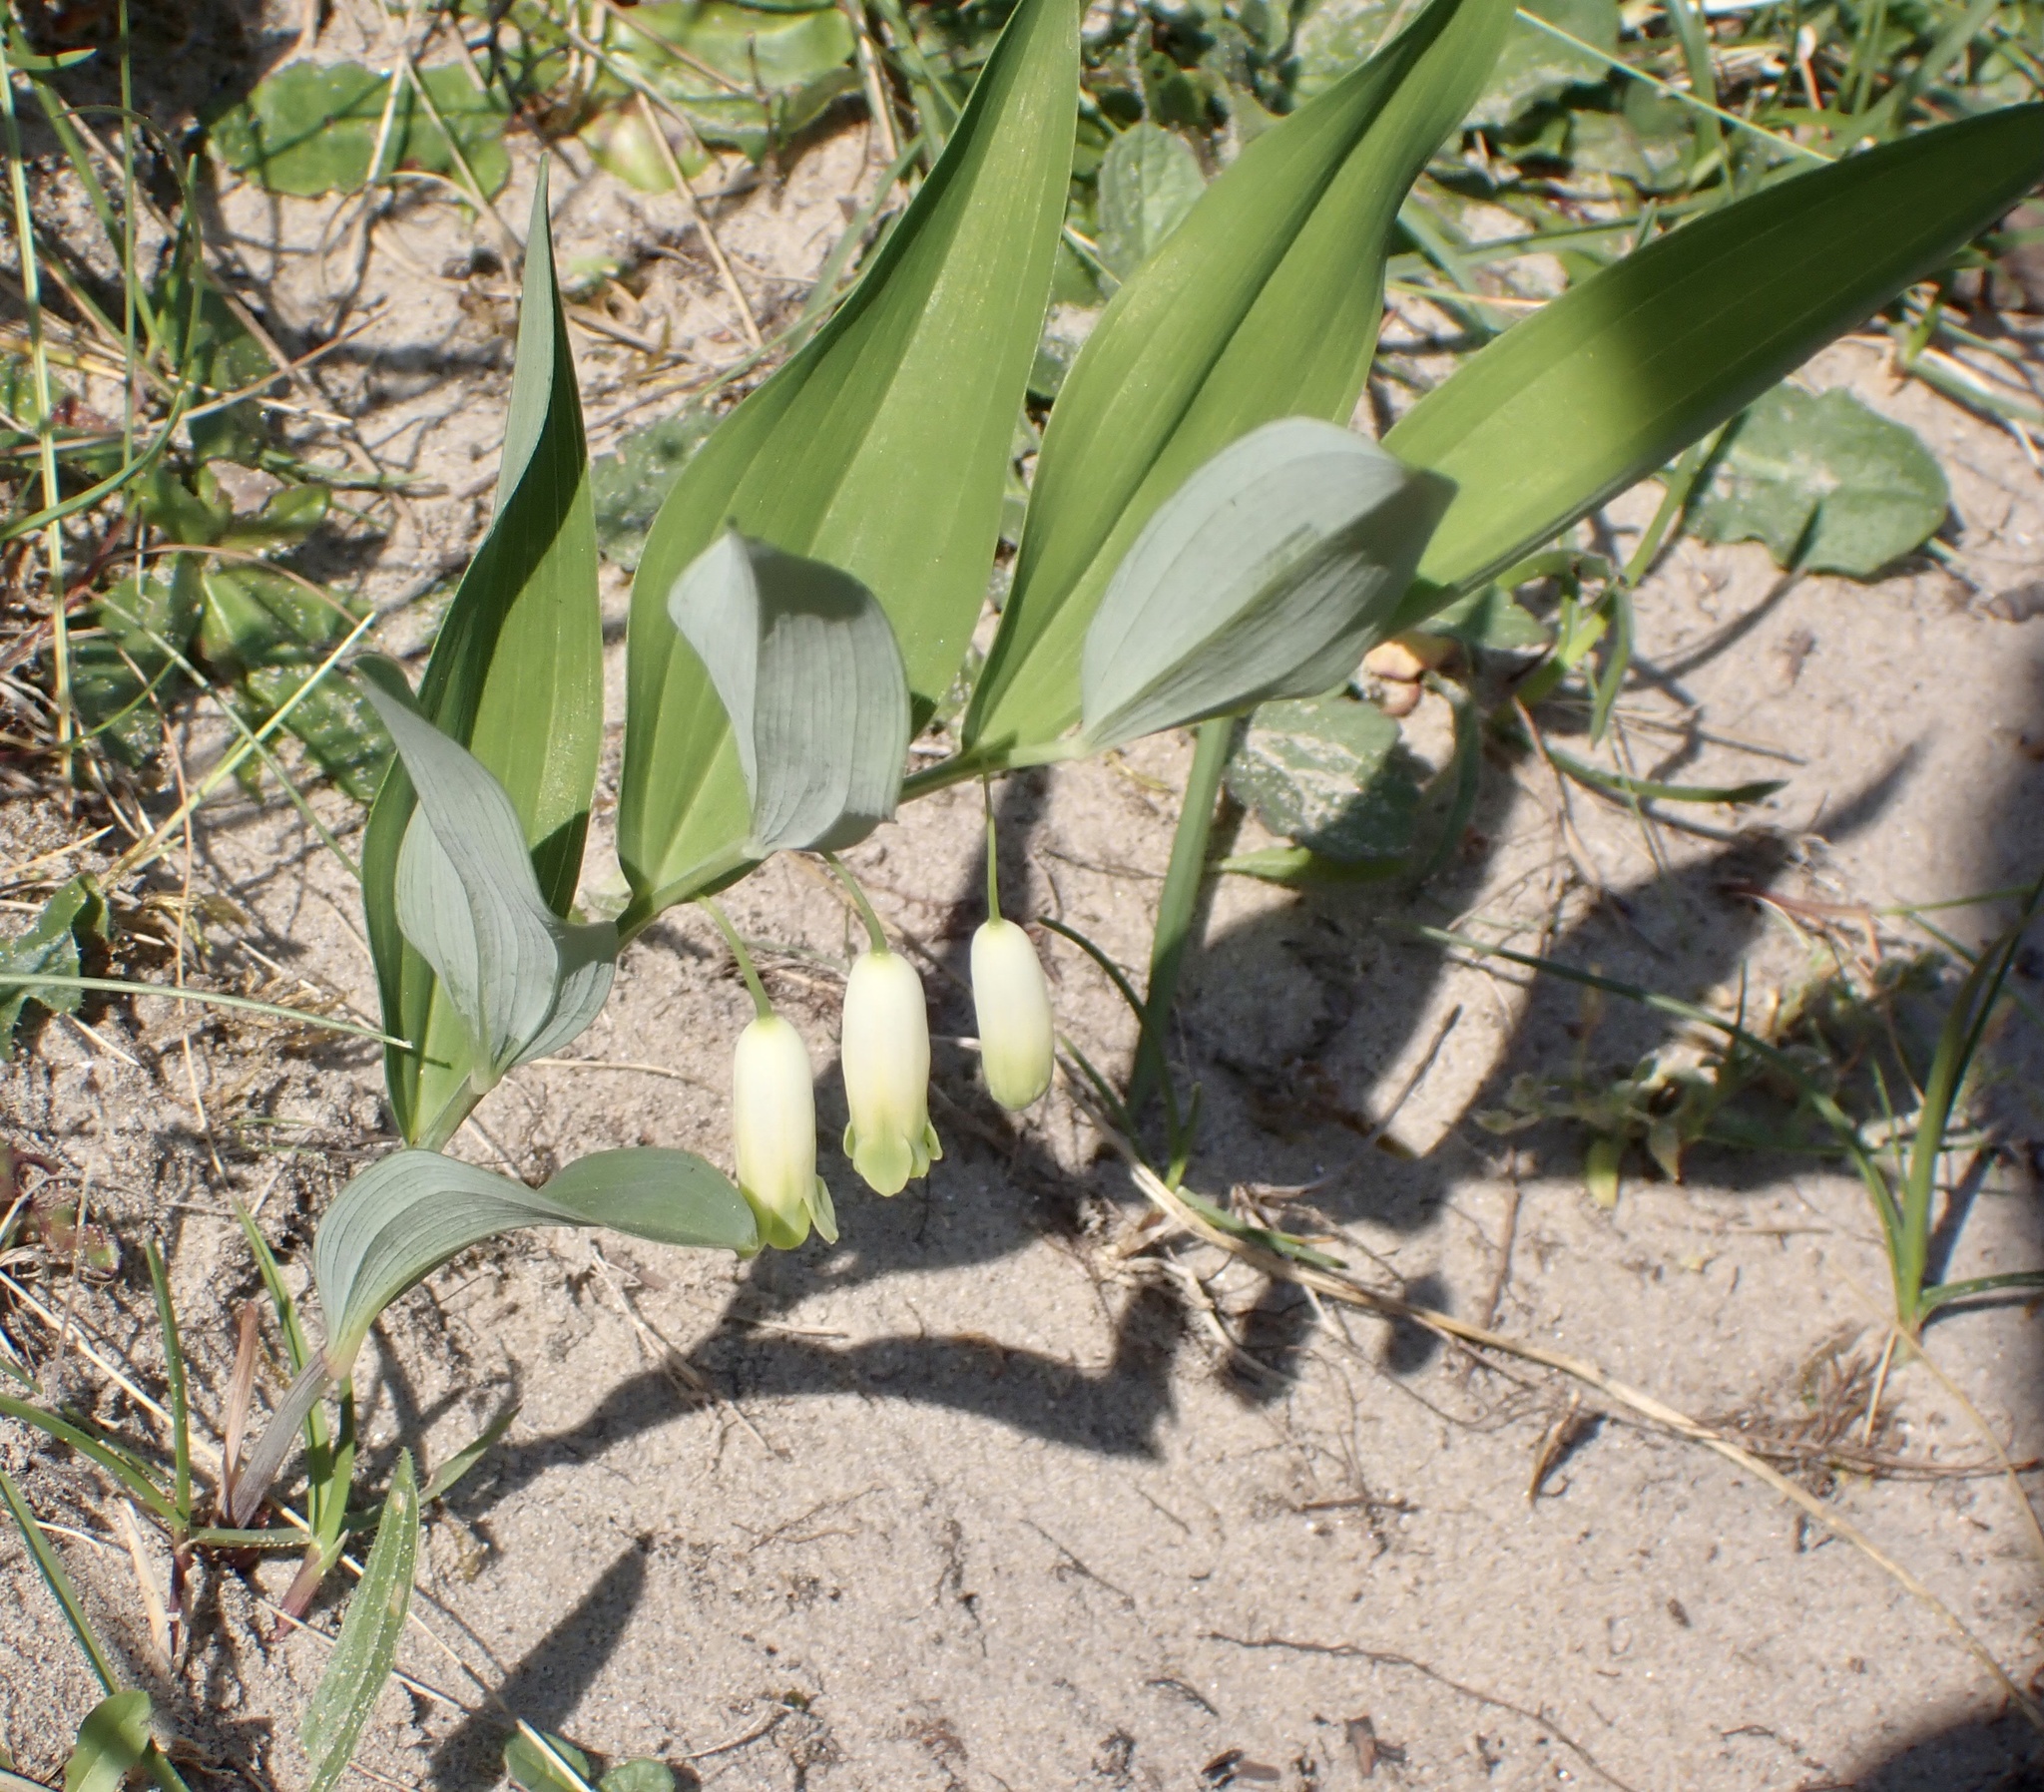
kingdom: Plantae
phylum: Tracheophyta
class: Liliopsida
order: Asparagales
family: Asparagaceae
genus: Polygonatum
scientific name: Polygonatum odoratum
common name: Angular solomon's-seal
